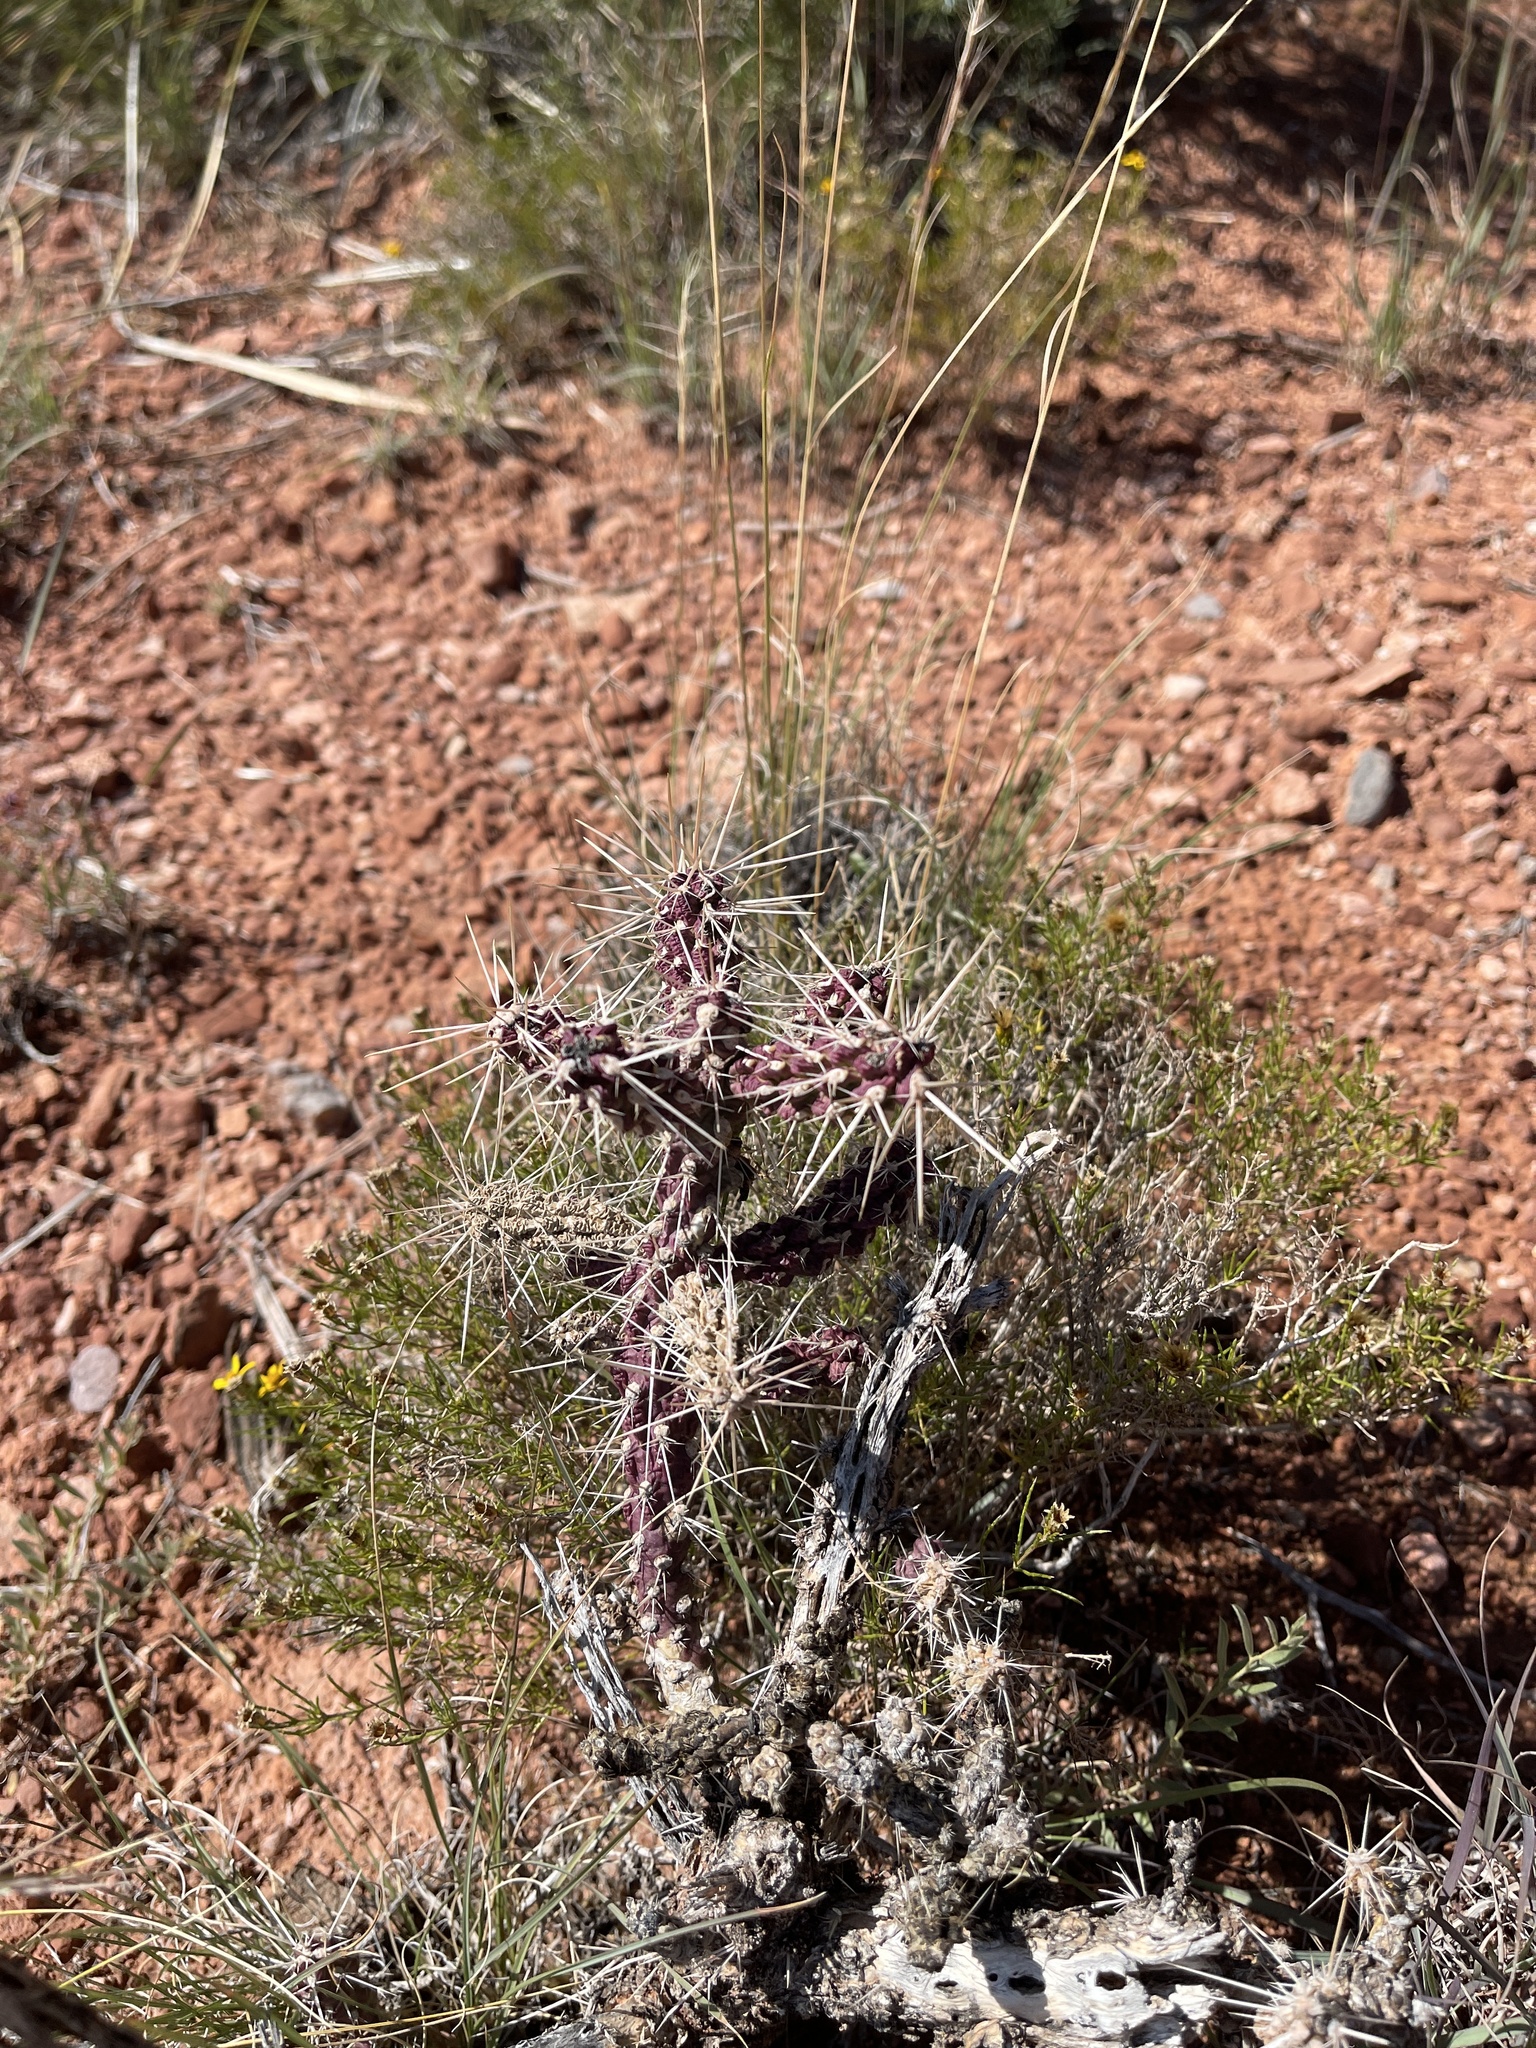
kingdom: Plantae
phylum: Tracheophyta
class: Magnoliopsida
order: Caryophyllales
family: Cactaceae
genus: Cylindropuntia
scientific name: Cylindropuntia whipplei
